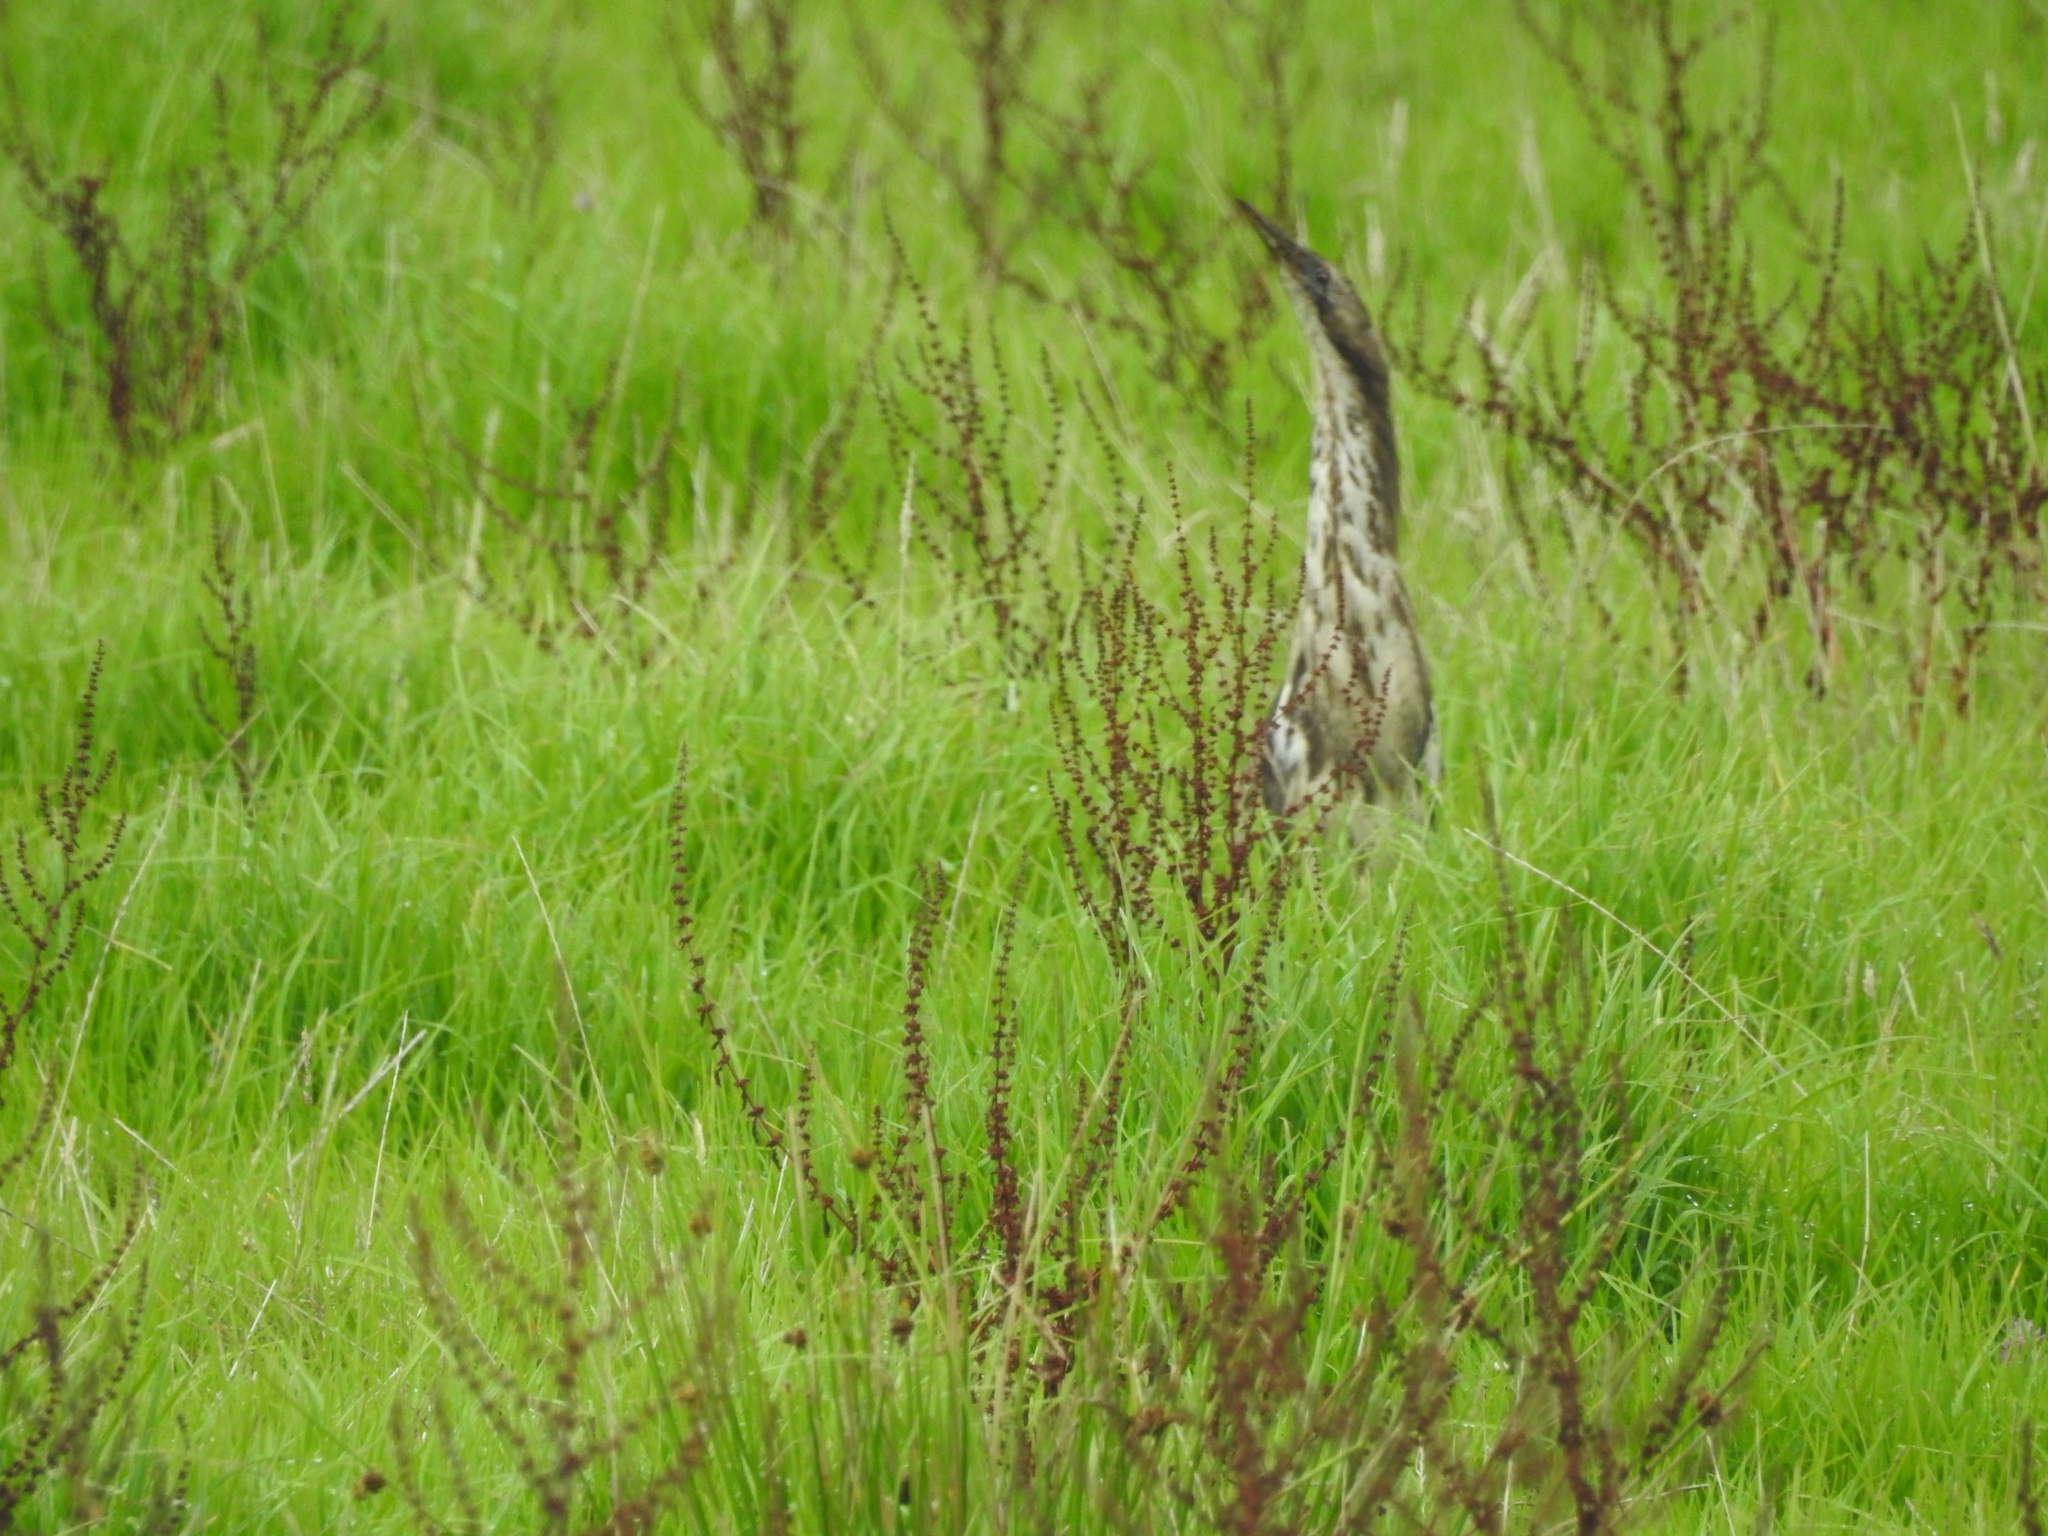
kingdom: Animalia
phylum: Chordata
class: Aves
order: Pelecaniformes
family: Ardeidae
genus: Botaurus
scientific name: Botaurus poiciloptilus
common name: Australasian bittern
